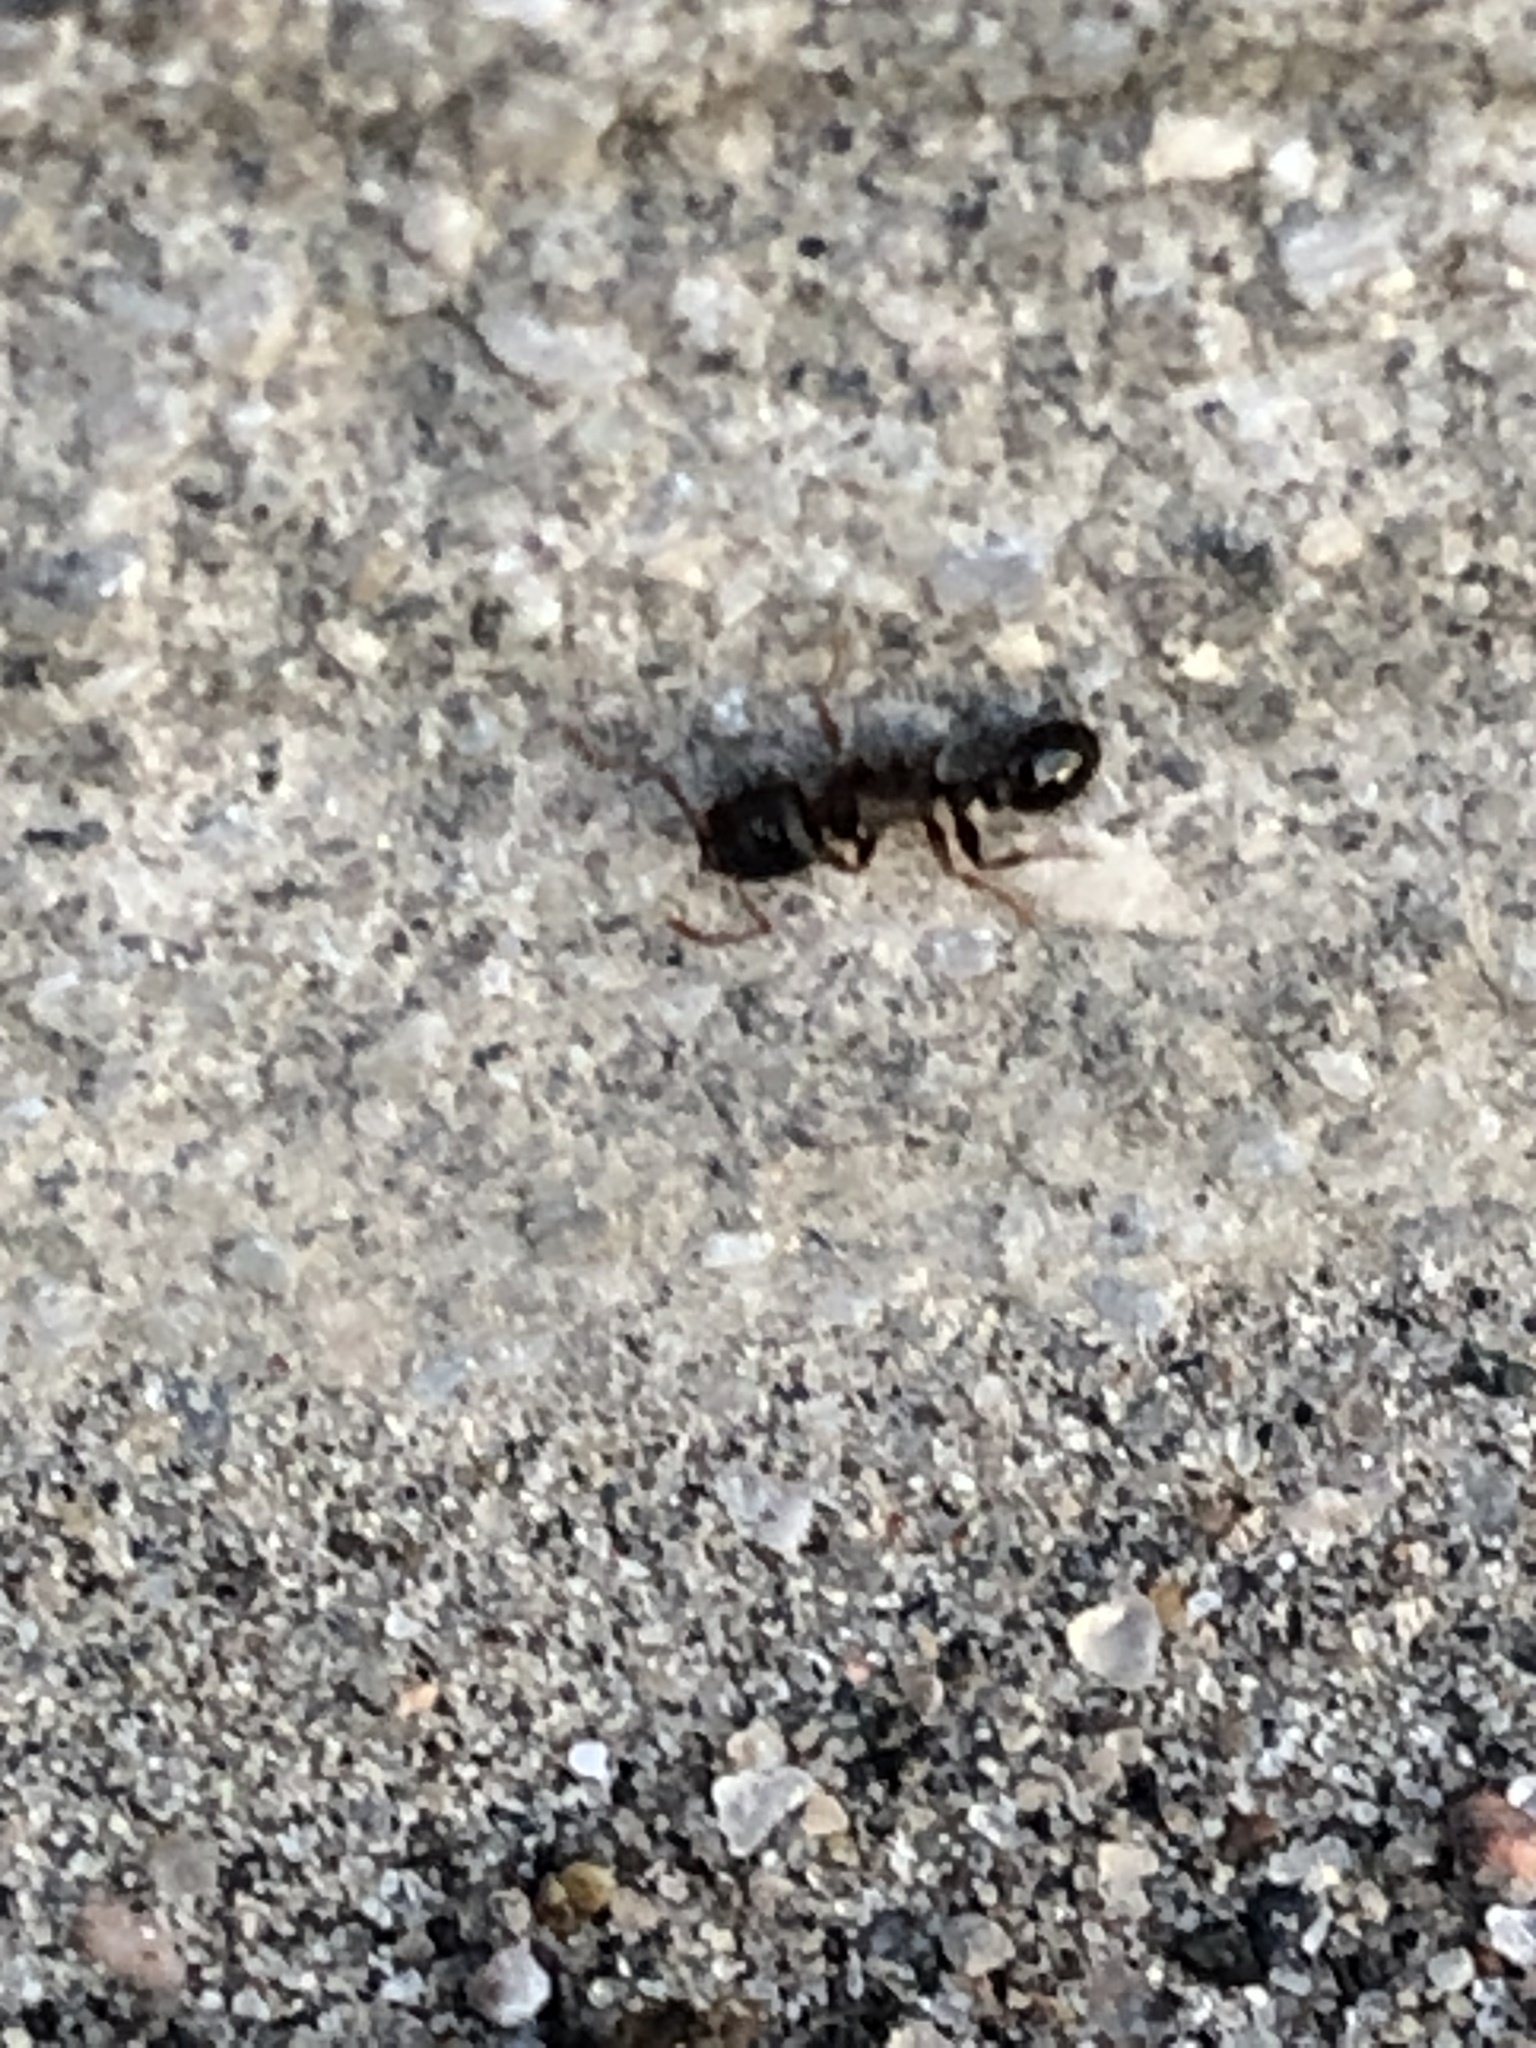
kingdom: Animalia
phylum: Arthropoda
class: Insecta
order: Hymenoptera
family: Formicidae
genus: Tetramorium
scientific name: Tetramorium immigrans
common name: Pavement ant
